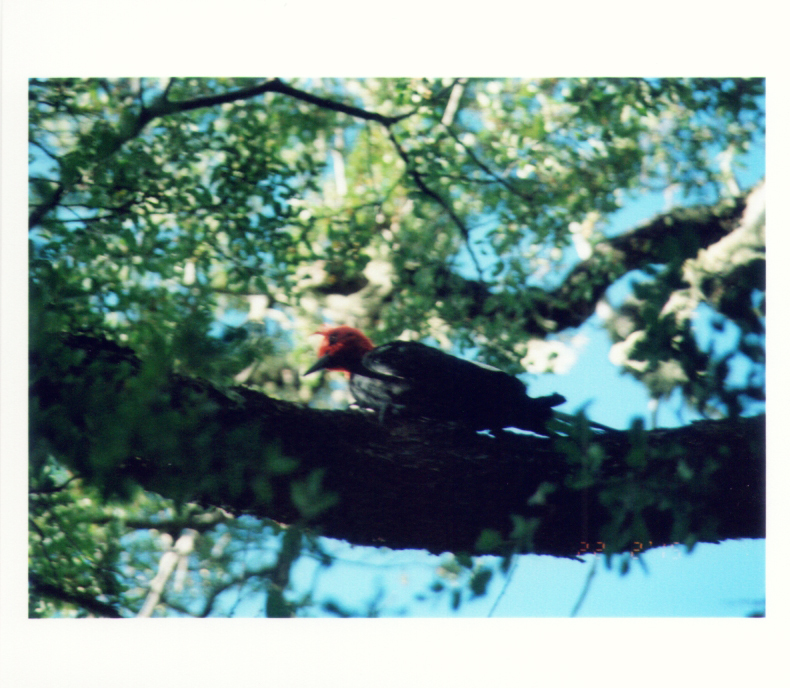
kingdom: Animalia
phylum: Chordata
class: Aves
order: Piciformes
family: Picidae
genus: Campephilus
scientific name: Campephilus magellanicus
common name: Magellanic woodpecker
